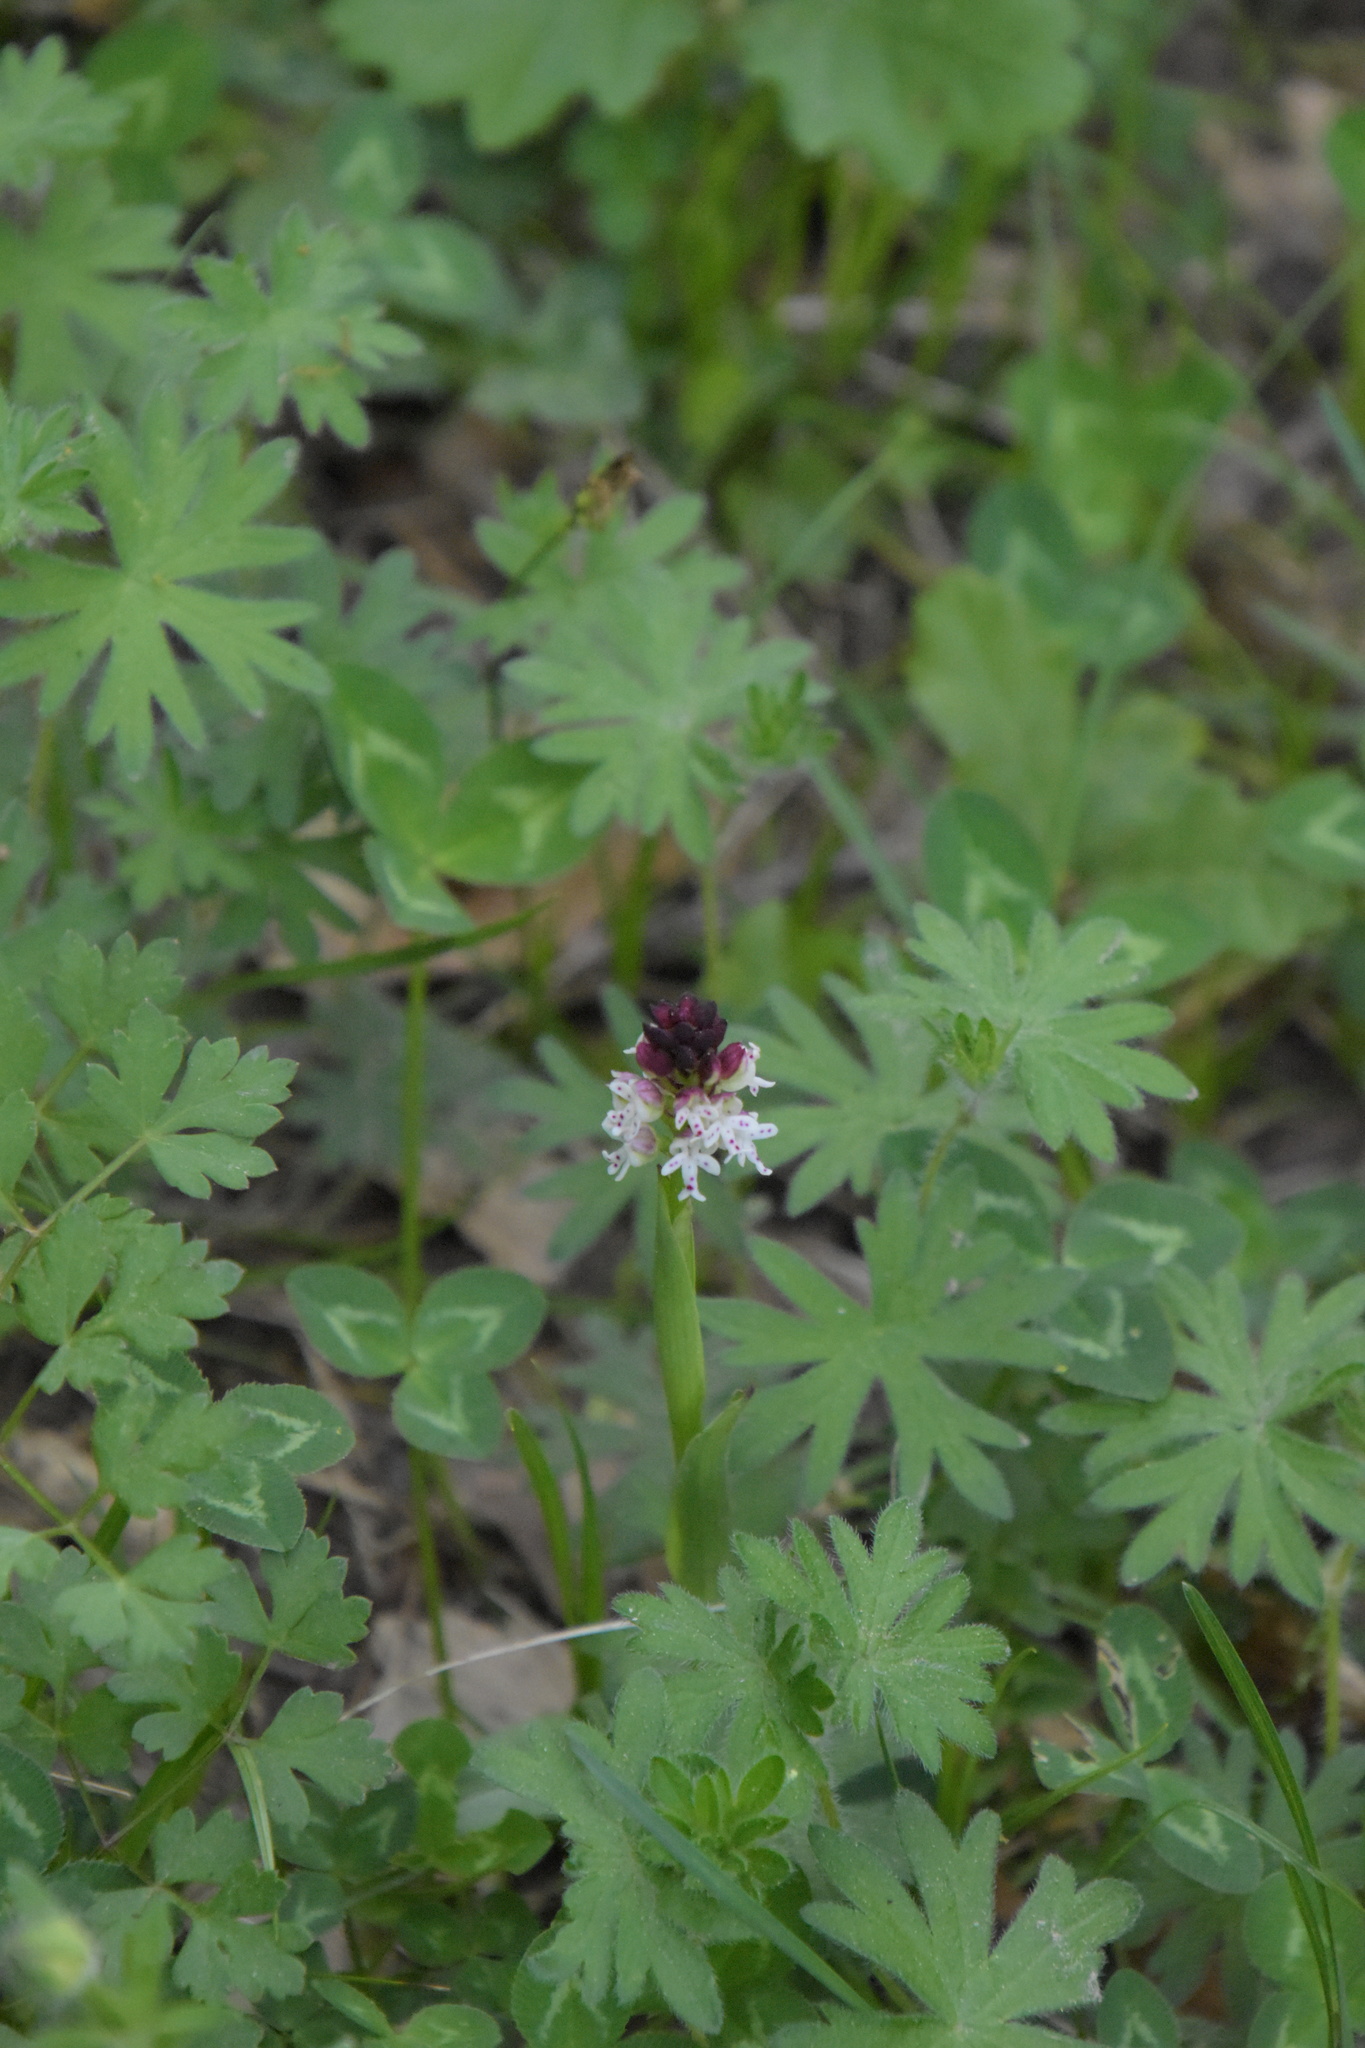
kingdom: Plantae
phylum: Tracheophyta
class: Liliopsida
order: Asparagales
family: Orchidaceae
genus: Neotinea
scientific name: Neotinea ustulata
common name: Burnt orchid
